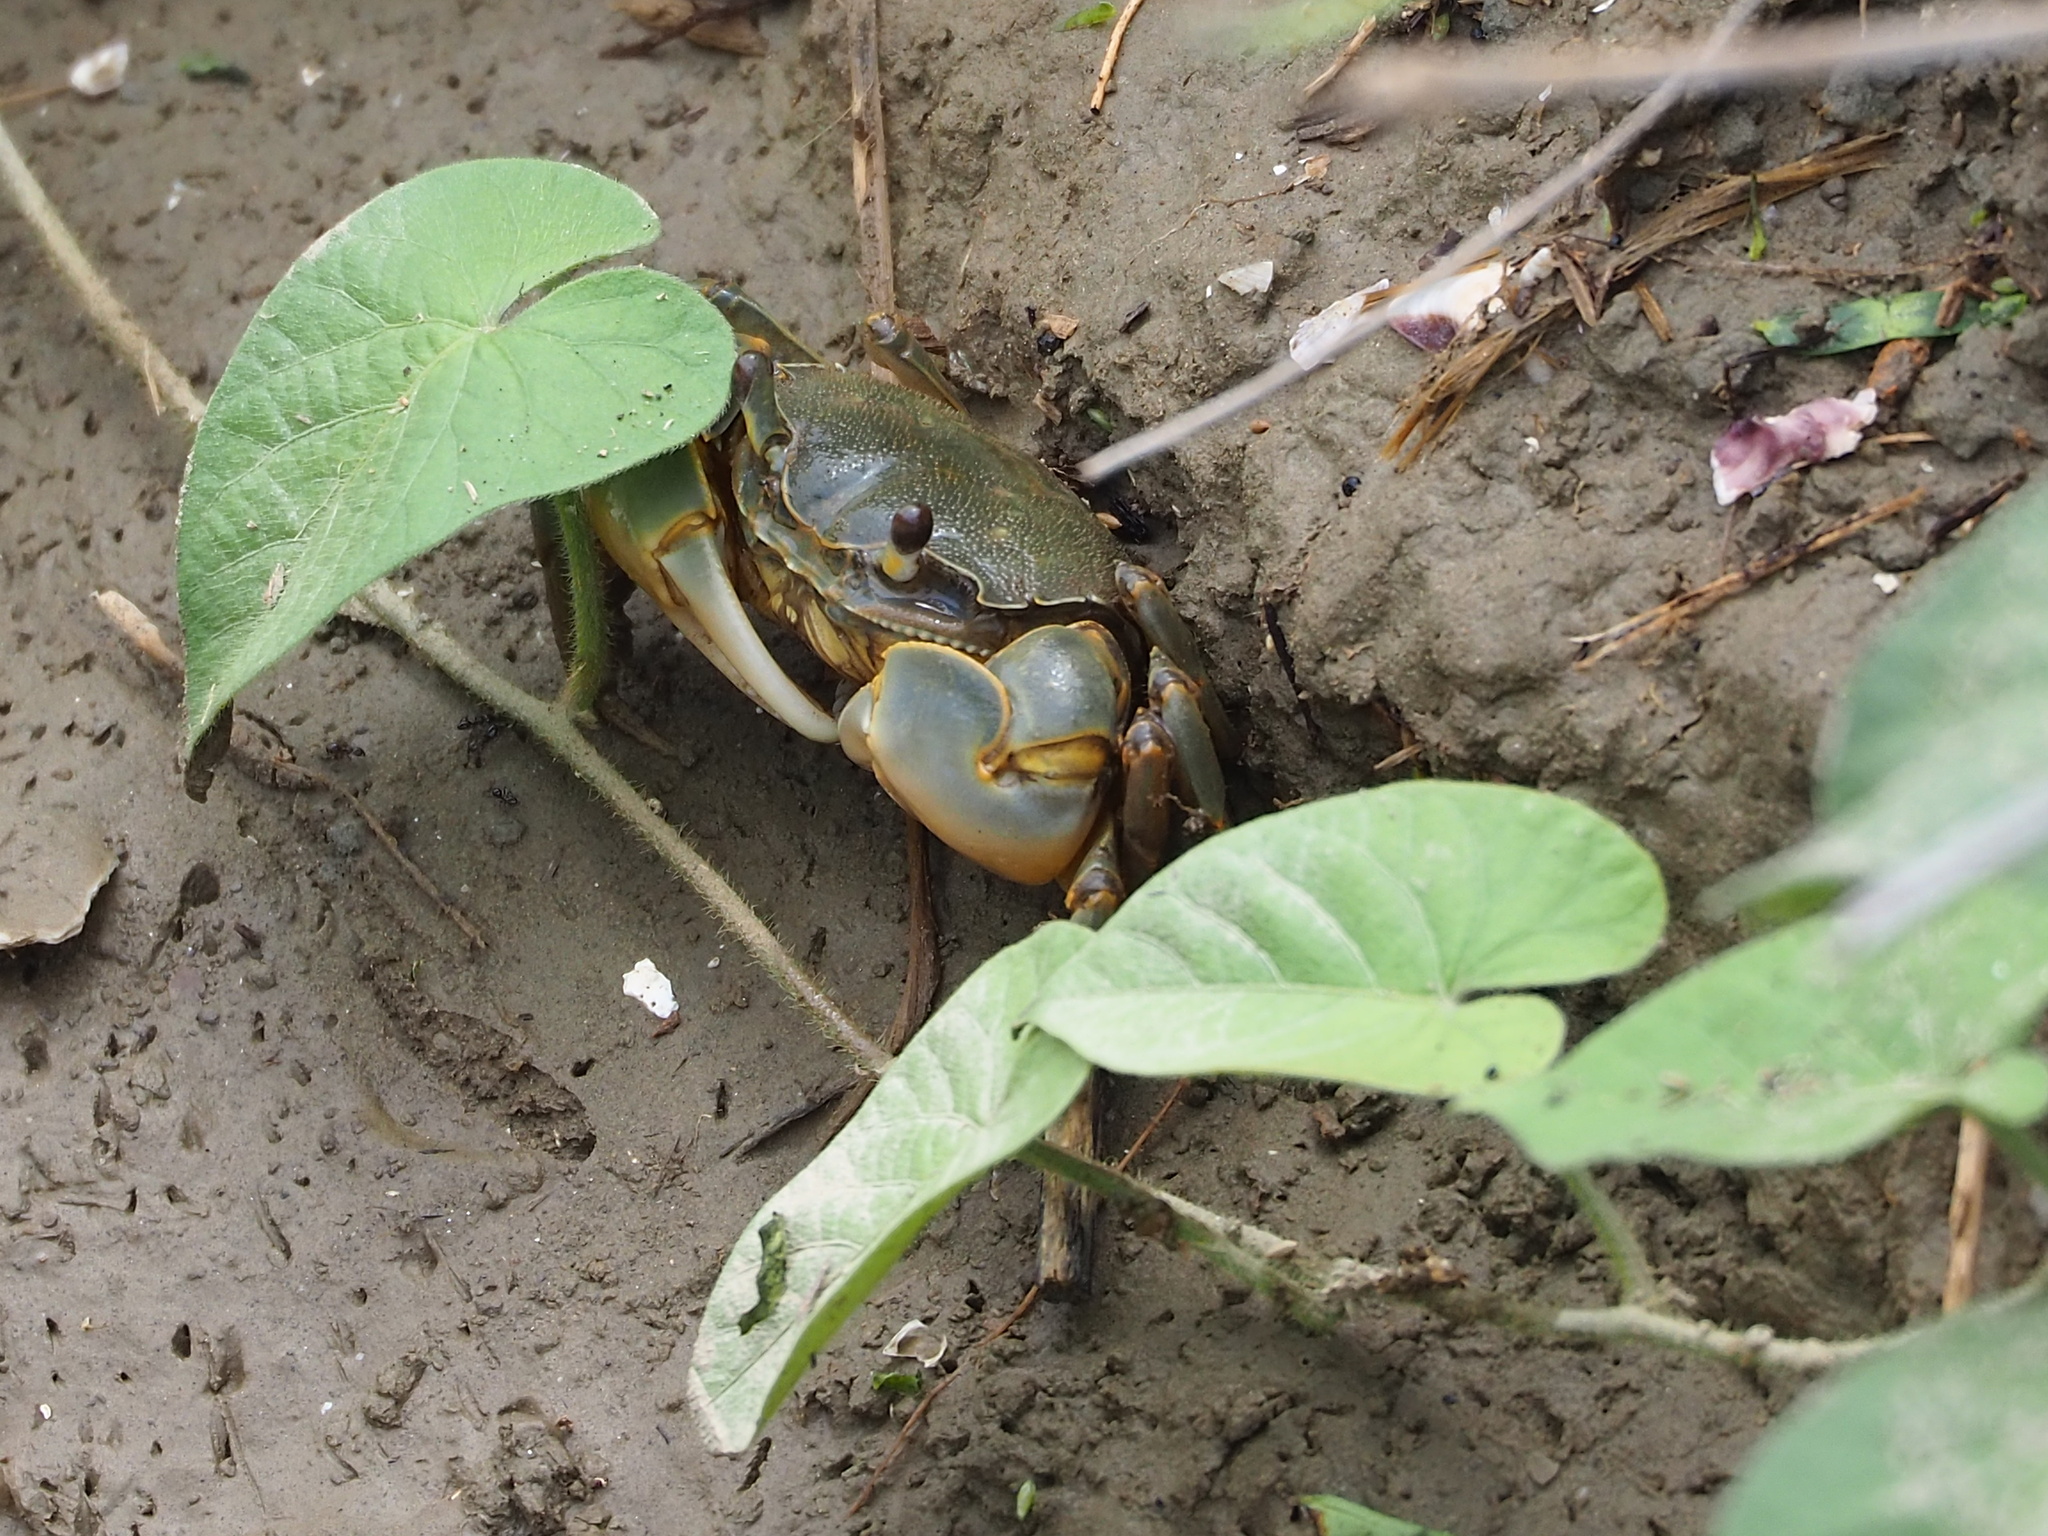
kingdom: Animalia
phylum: Arthropoda
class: Malacostraca
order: Decapoda
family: Varunidae
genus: Helice
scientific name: Helice formosensis
